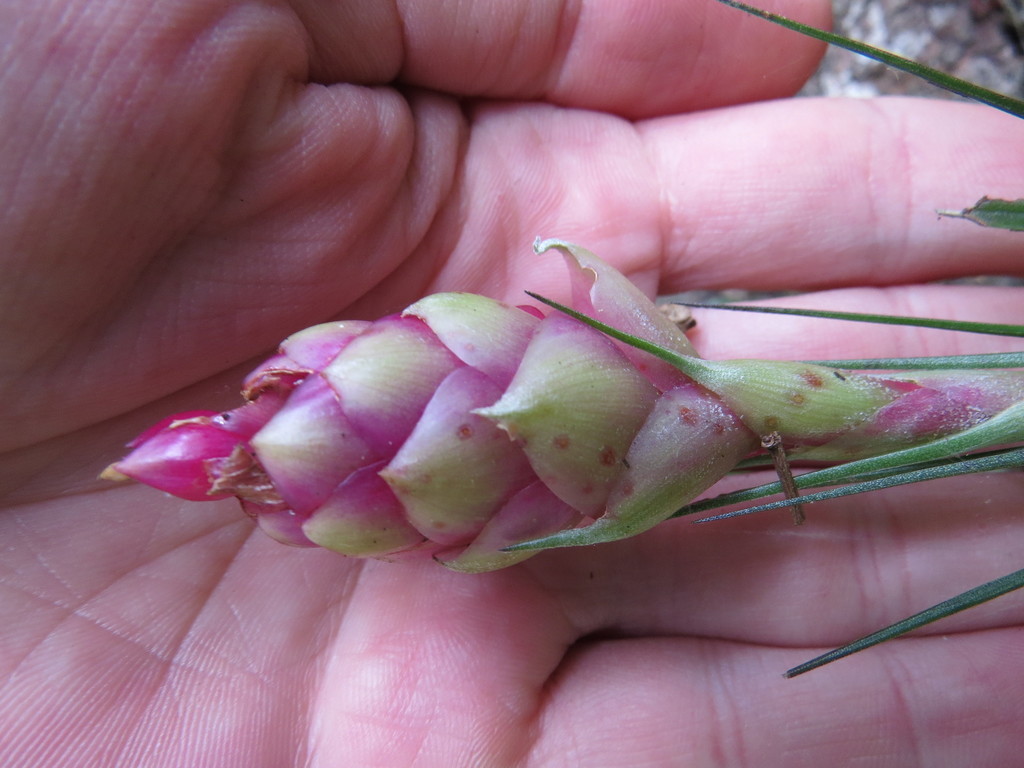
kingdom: Plantae
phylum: Tracheophyta
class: Liliopsida
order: Poales
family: Bromeliaceae
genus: Tillandsia
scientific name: Tillandsia stricta
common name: Airplant
